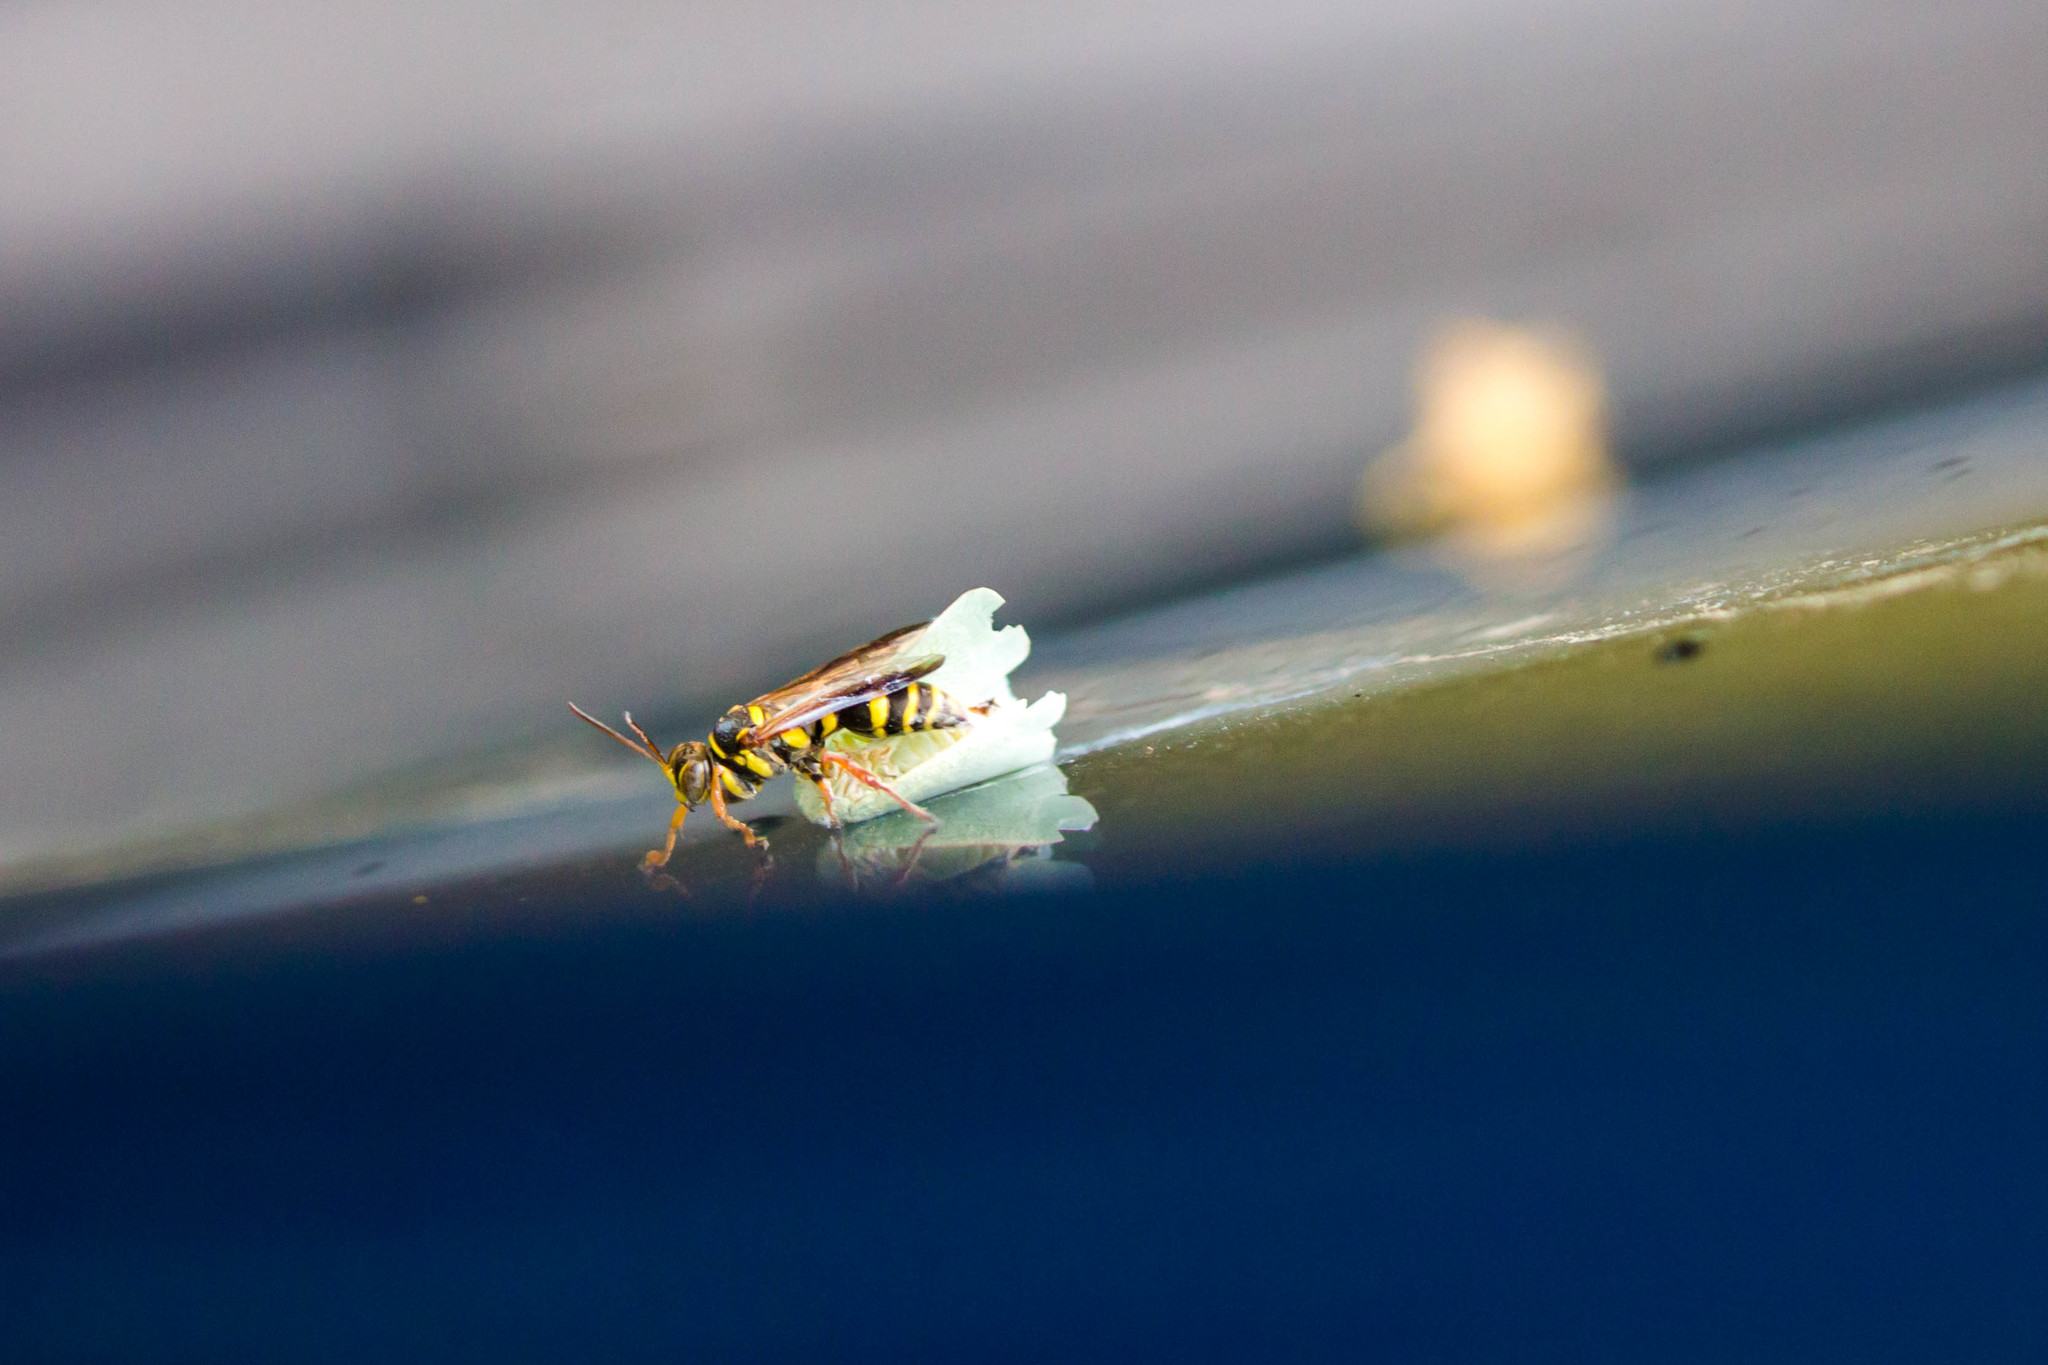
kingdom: Animalia
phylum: Arthropoda
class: Insecta
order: Hymenoptera
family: Crabronidae
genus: Psammaletes
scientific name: Psammaletes mexicanus
